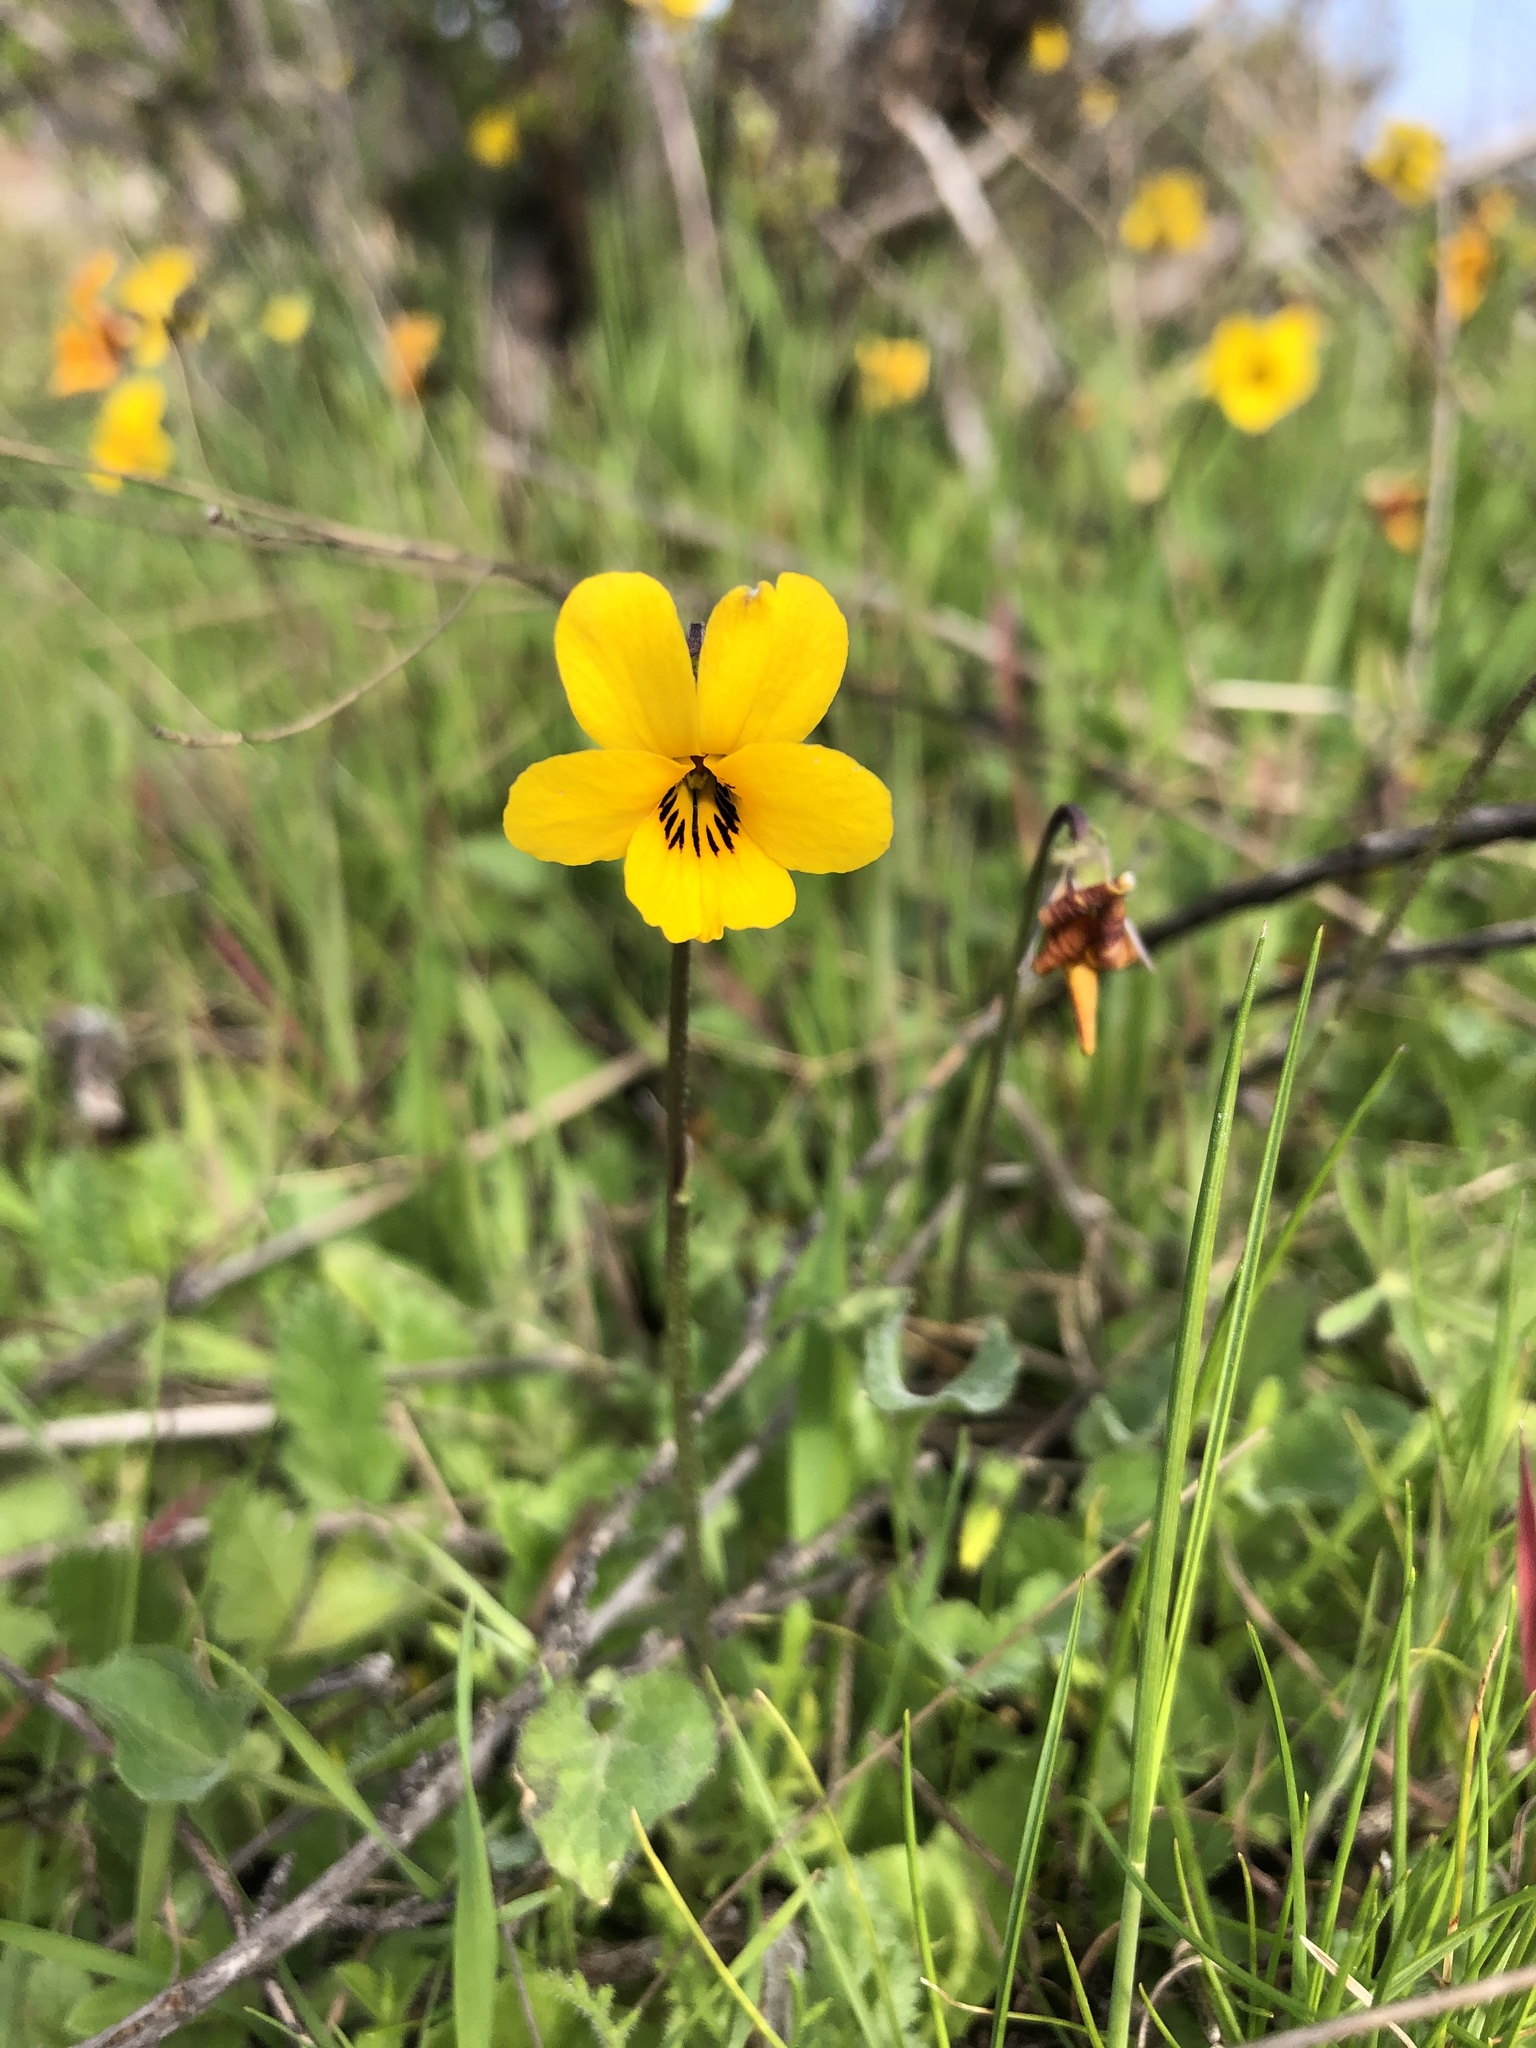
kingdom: Plantae
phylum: Tracheophyta
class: Magnoliopsida
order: Malpighiales
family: Violaceae
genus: Viola
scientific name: Viola pedunculata
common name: California golden violet
